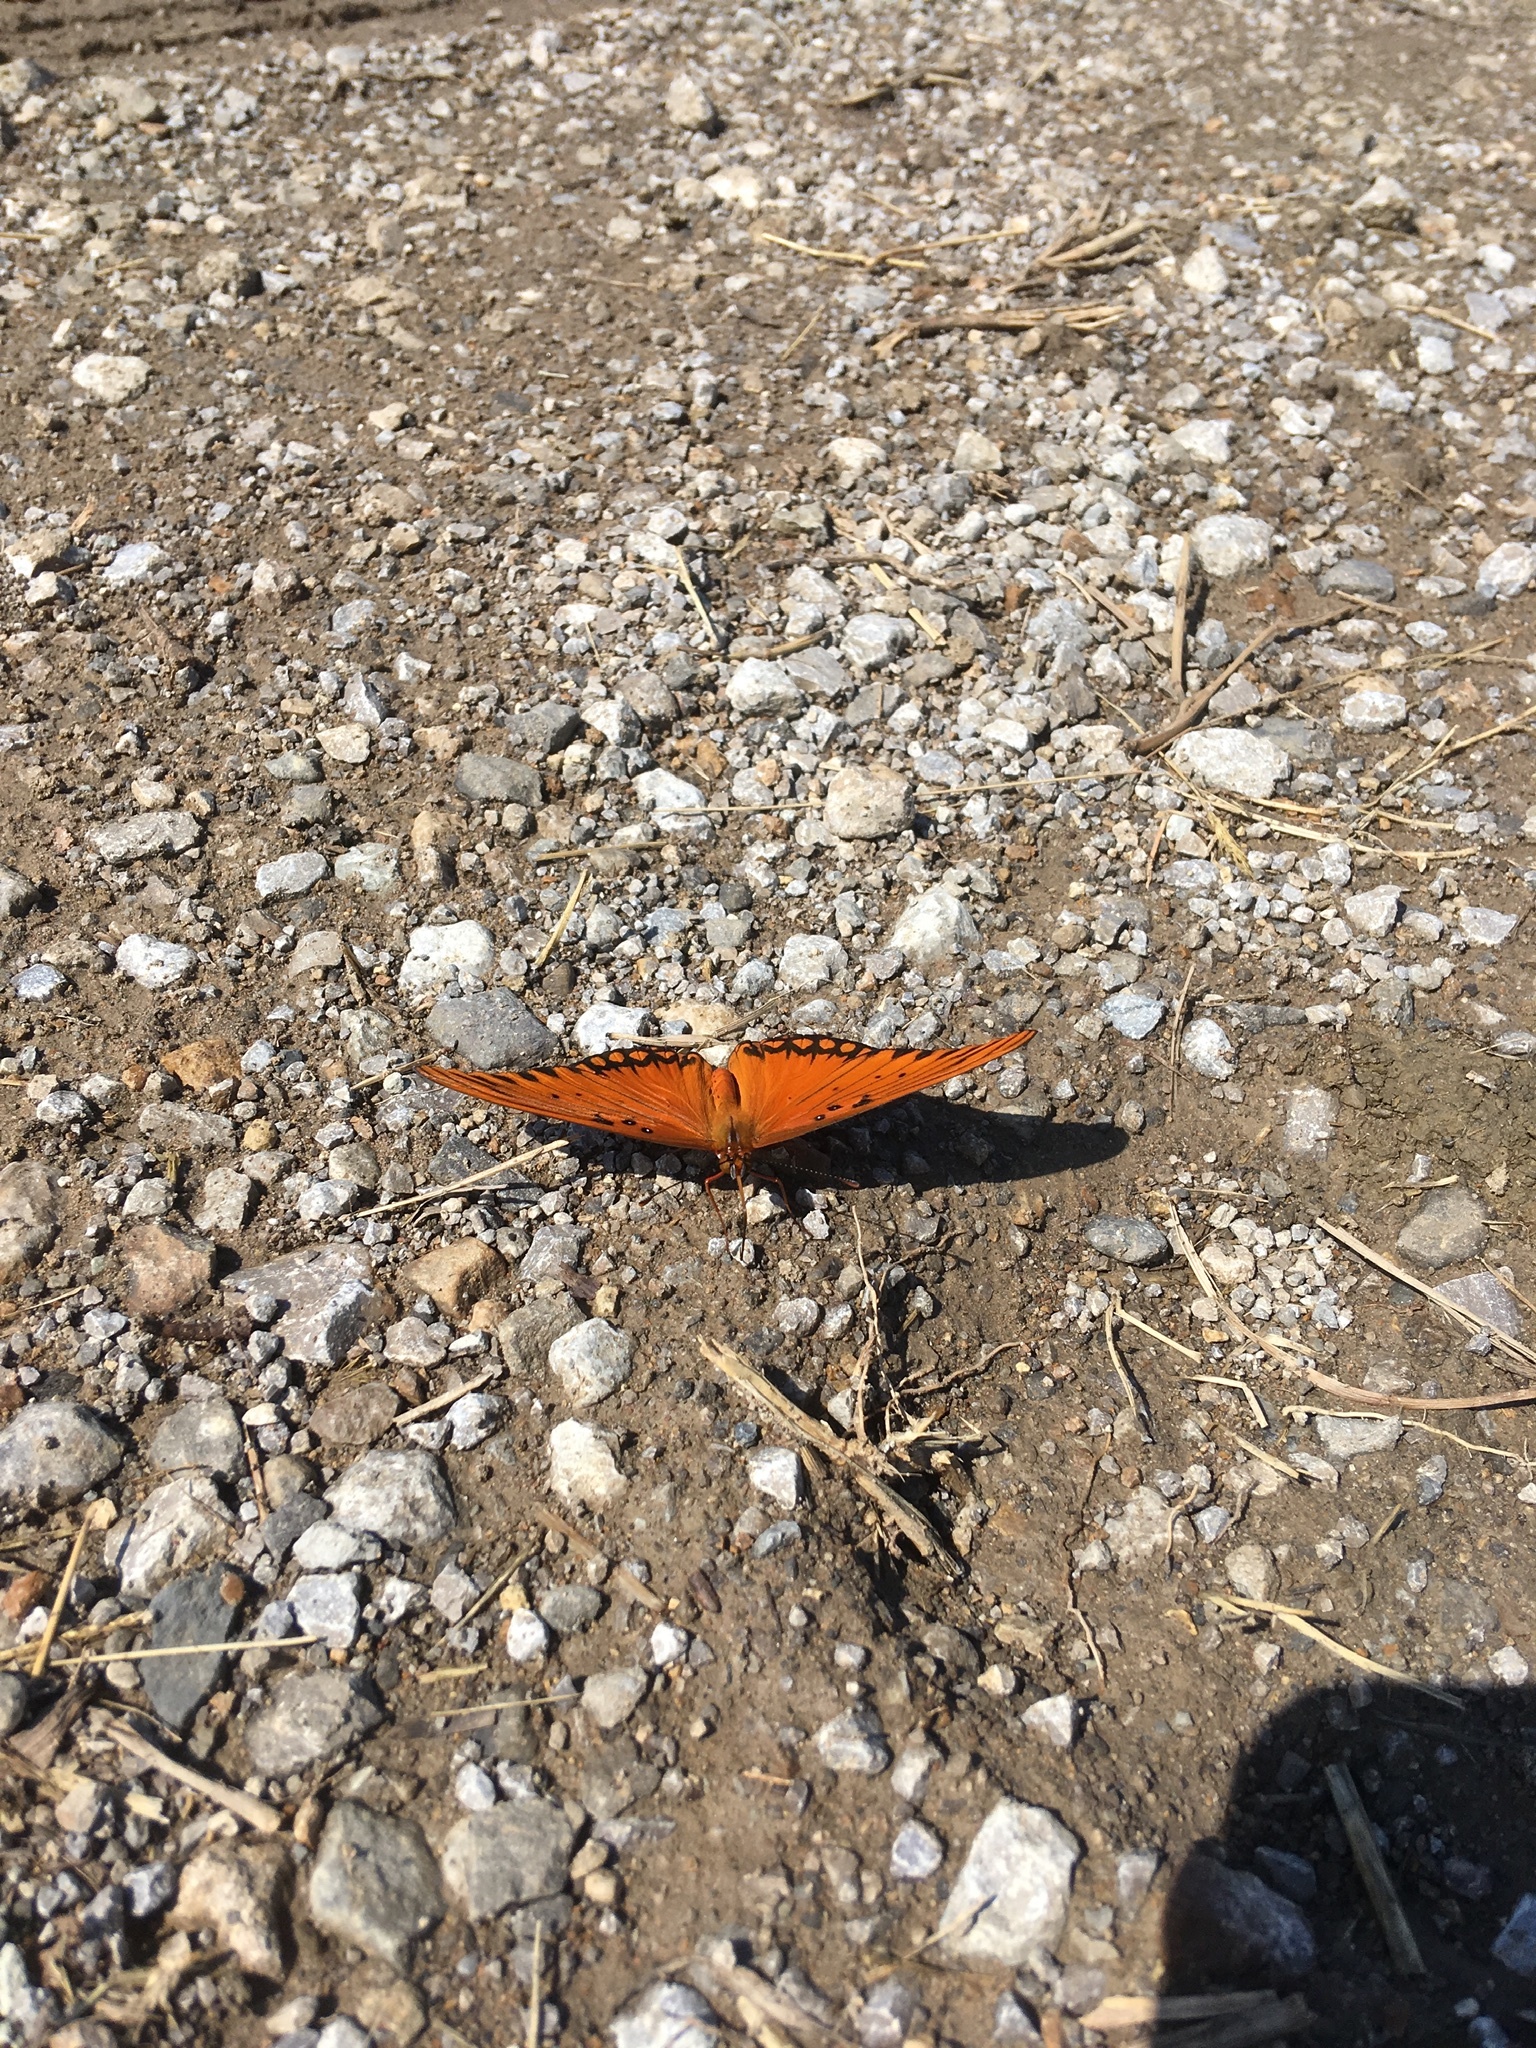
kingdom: Animalia
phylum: Arthropoda
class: Insecta
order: Lepidoptera
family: Nymphalidae
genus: Dione
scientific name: Dione vanillae
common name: Gulf fritillary
